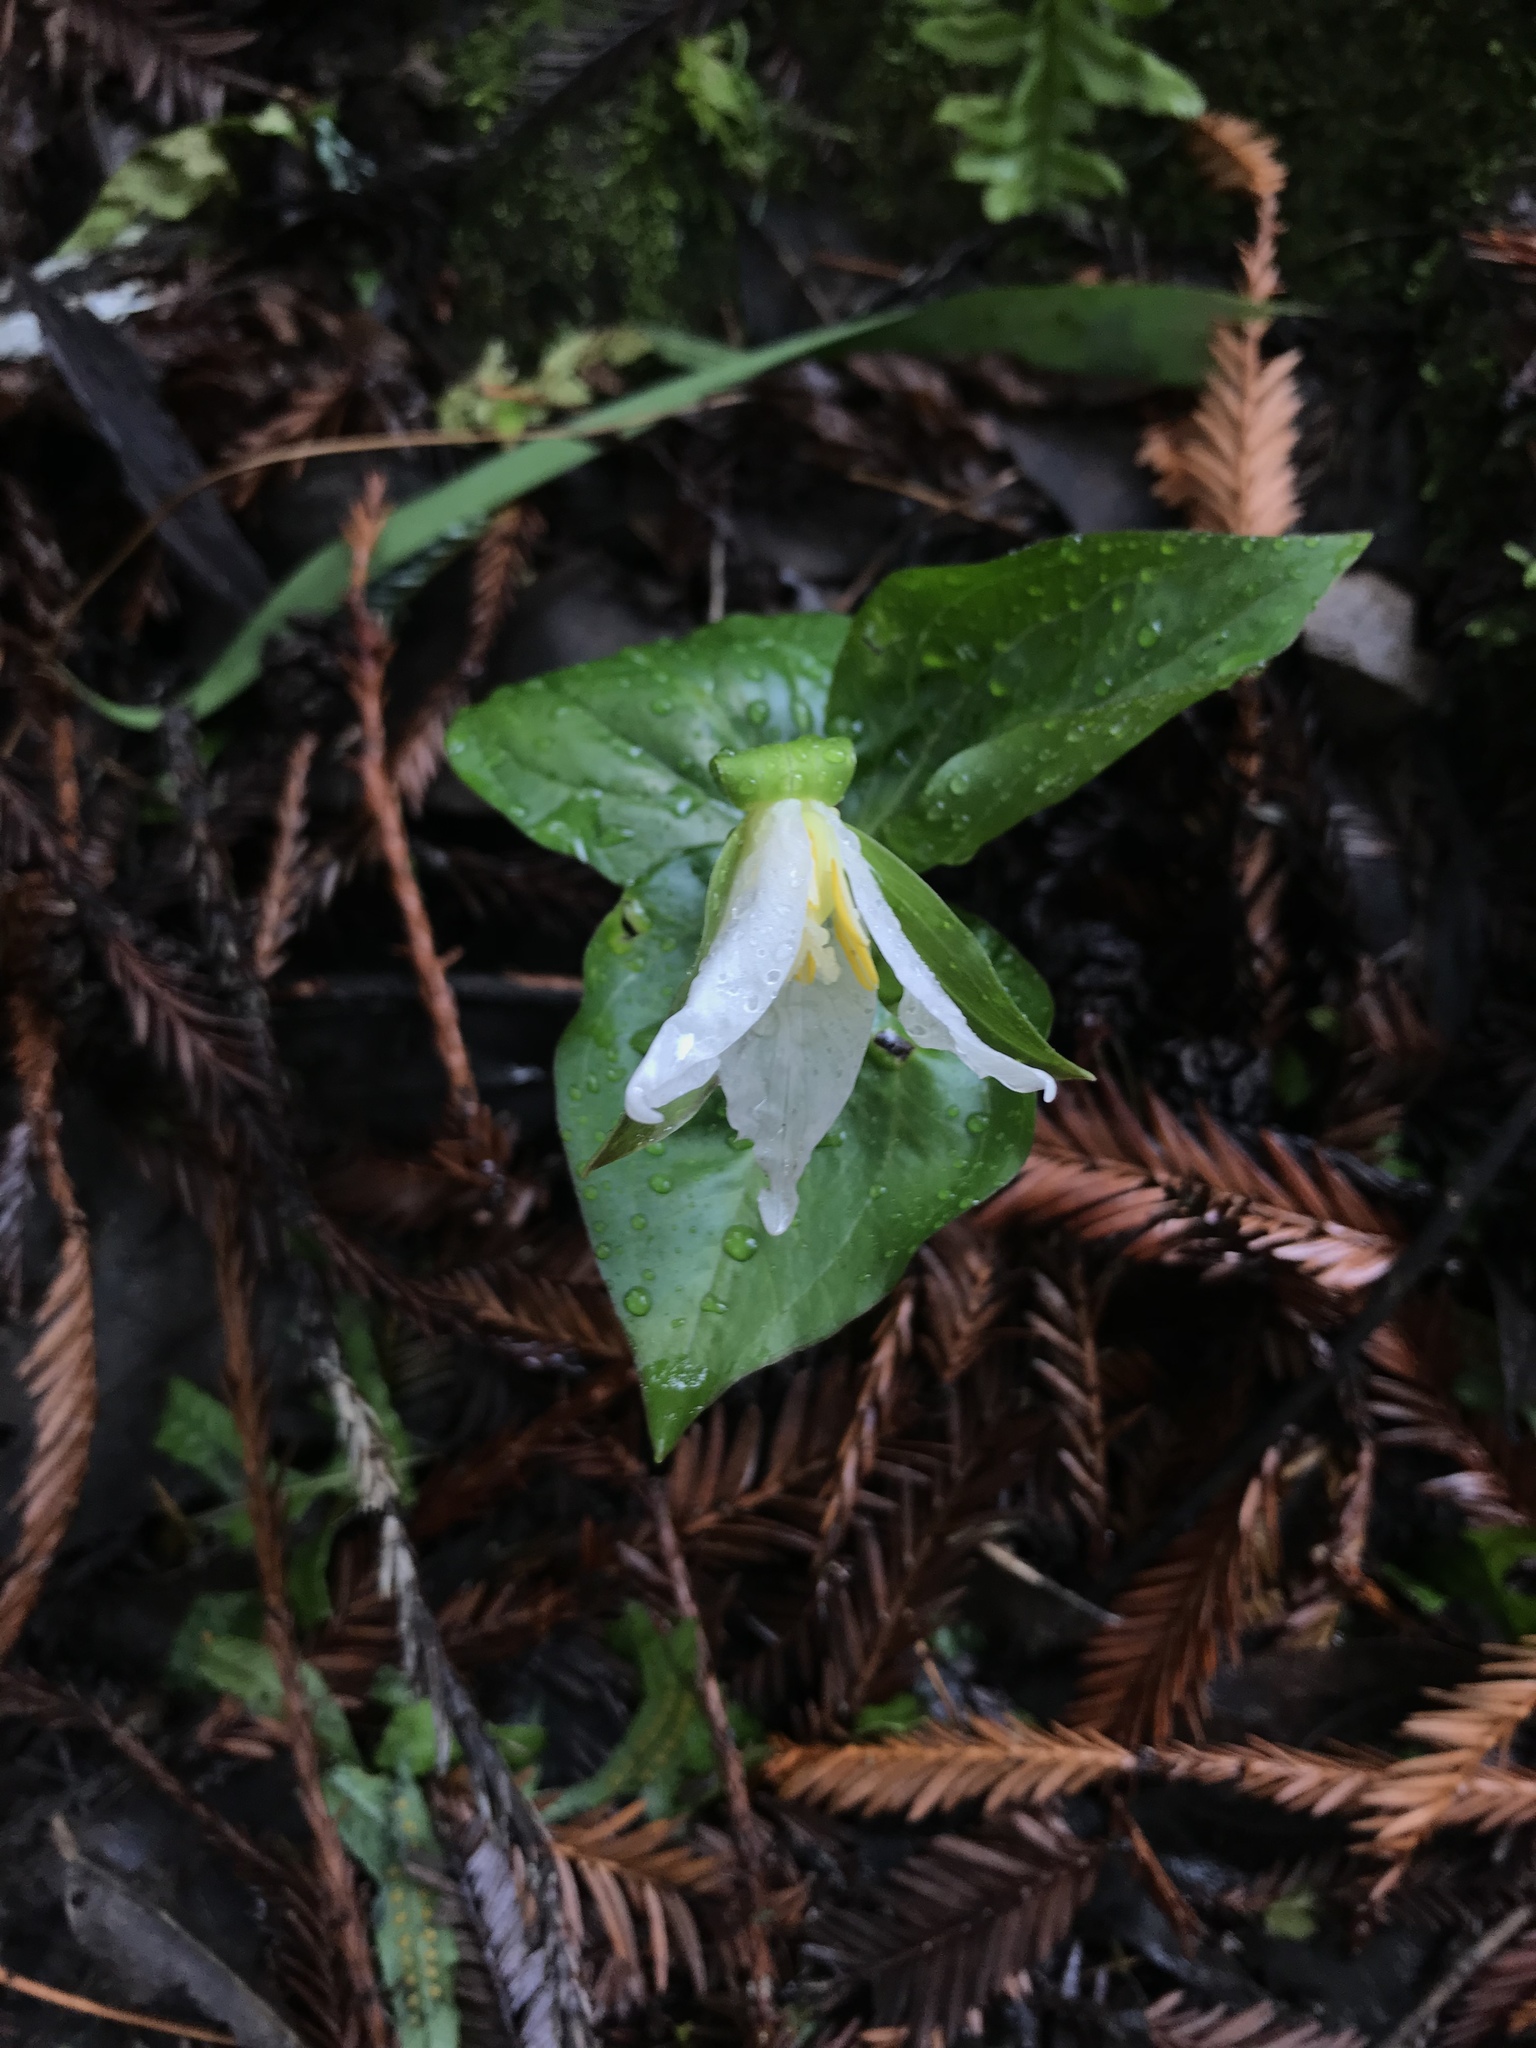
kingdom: Plantae
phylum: Tracheophyta
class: Liliopsida
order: Liliales
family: Melanthiaceae
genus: Trillium
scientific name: Trillium ovatum
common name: Pacific trillium
